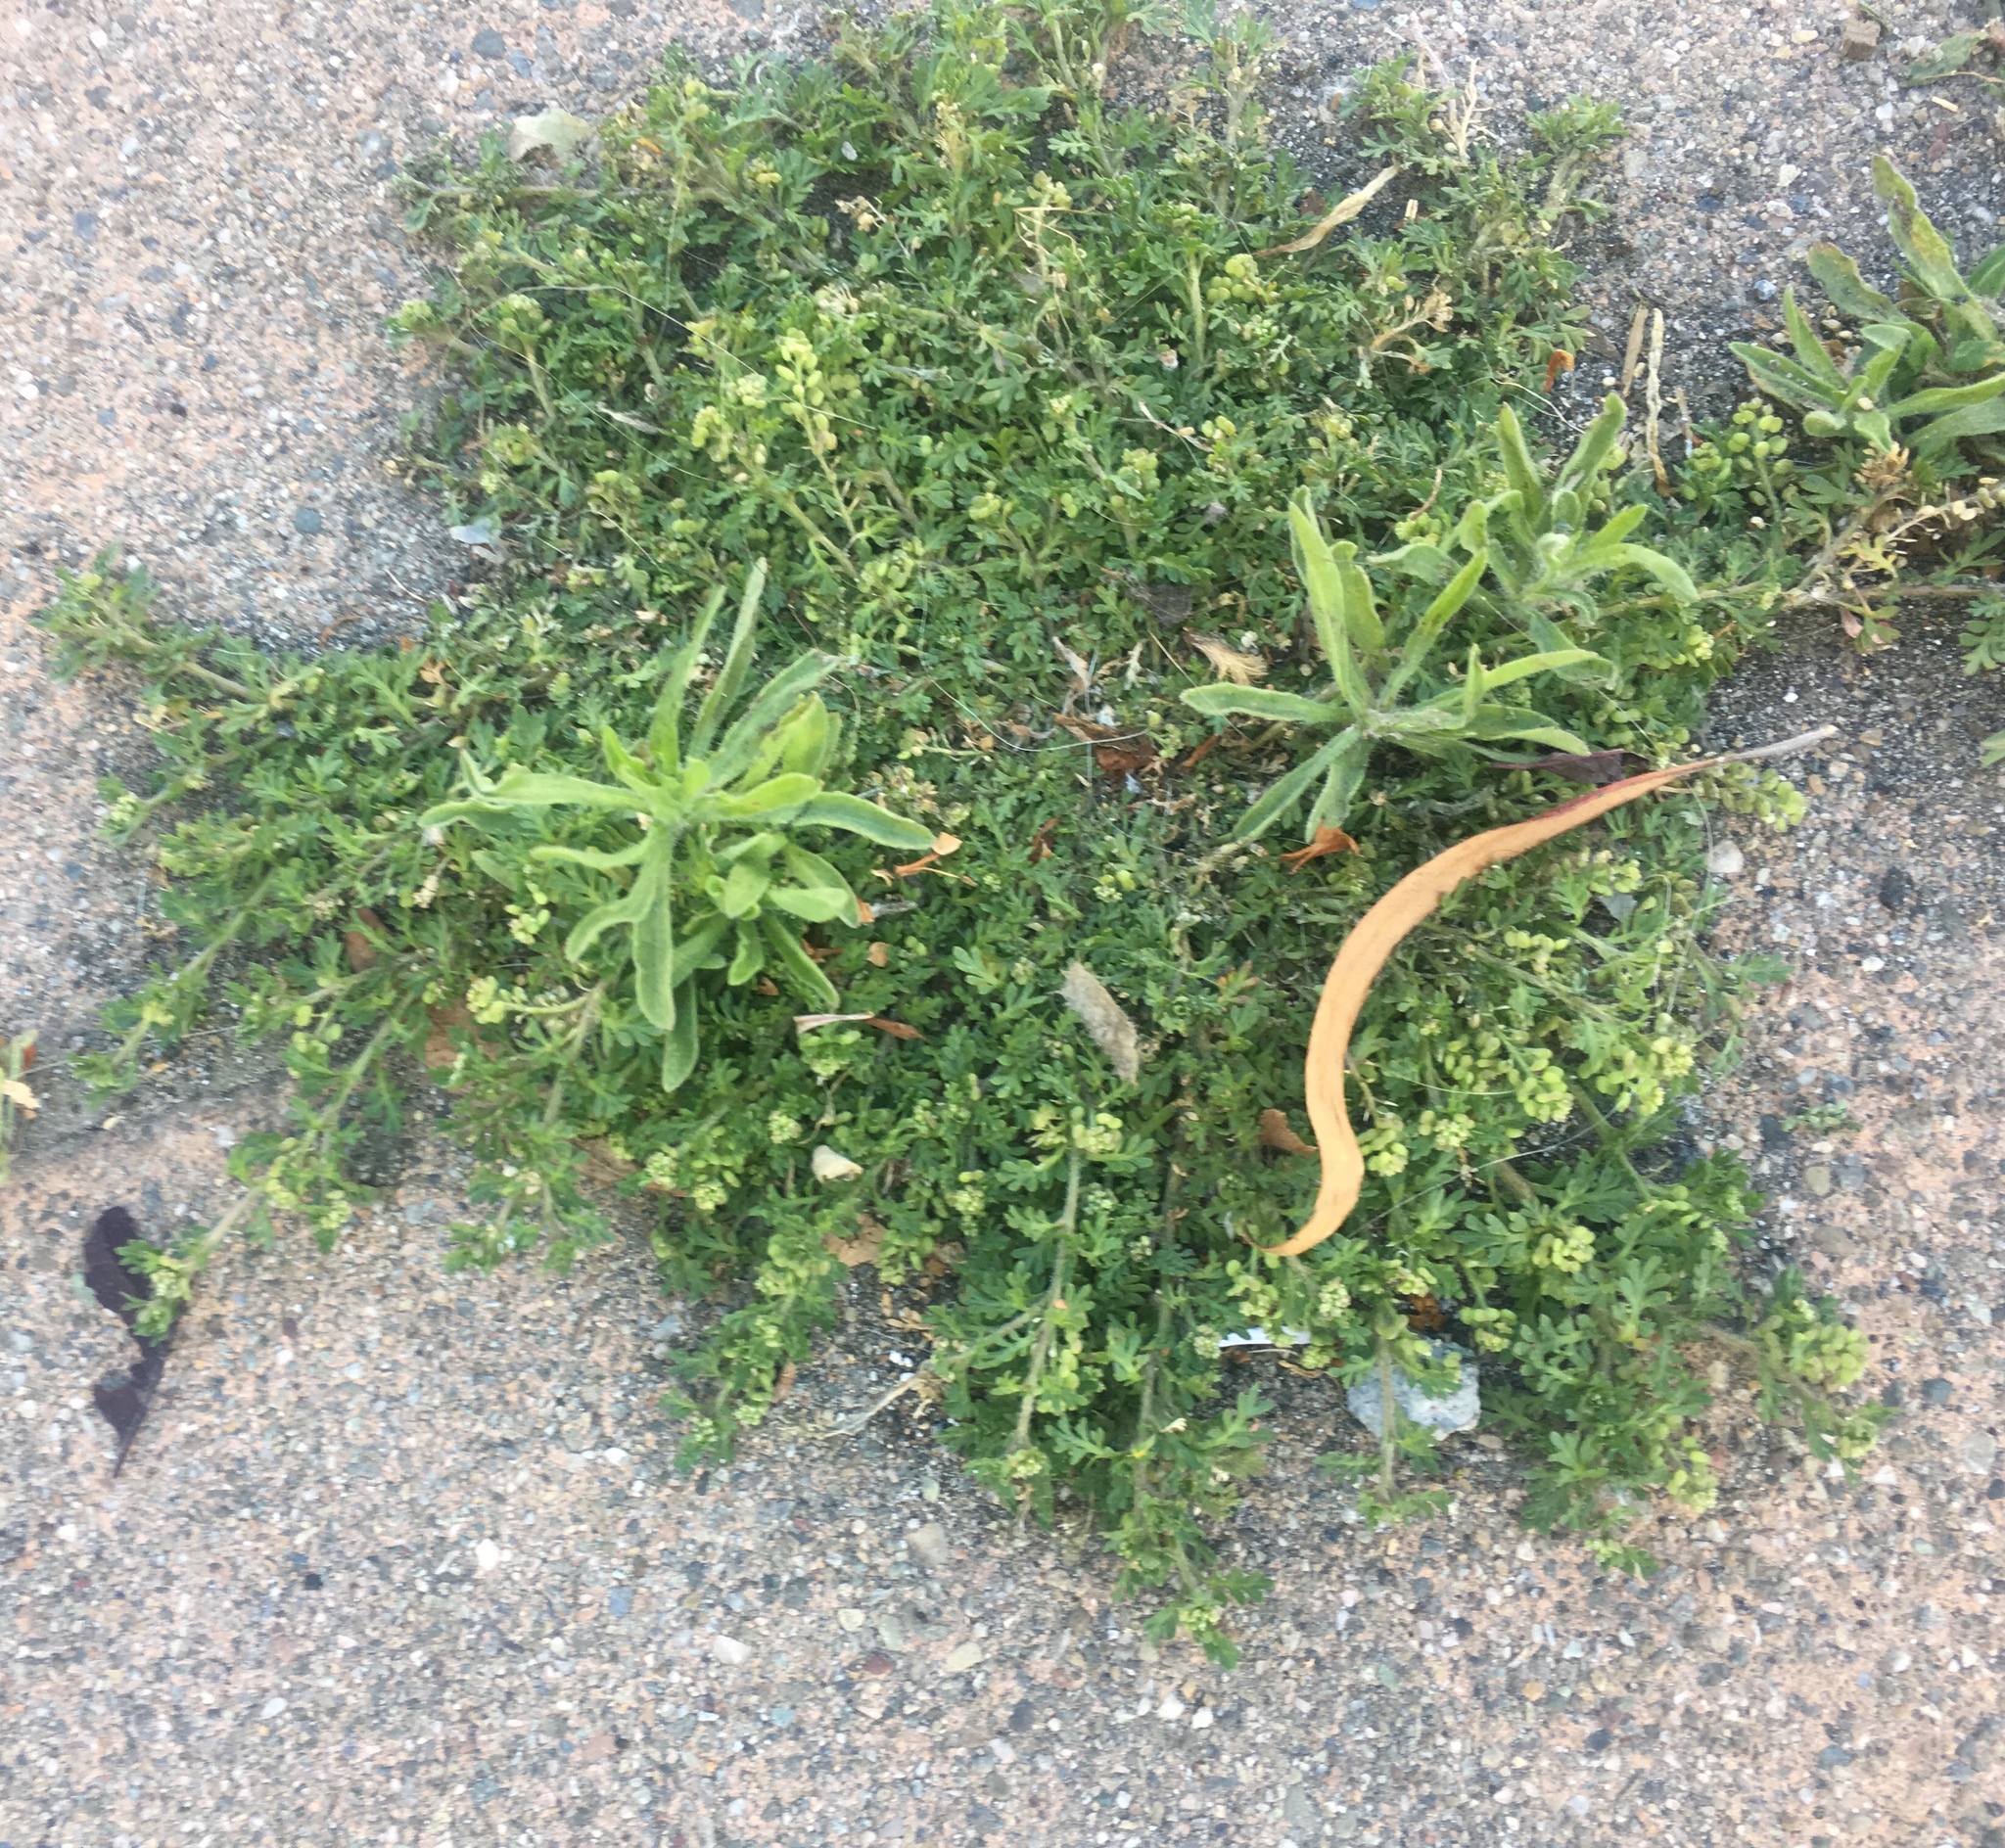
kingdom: Plantae
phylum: Tracheophyta
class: Magnoliopsida
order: Brassicales
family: Brassicaceae
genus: Lepidium
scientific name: Lepidium didymum
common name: Lesser swinecress
